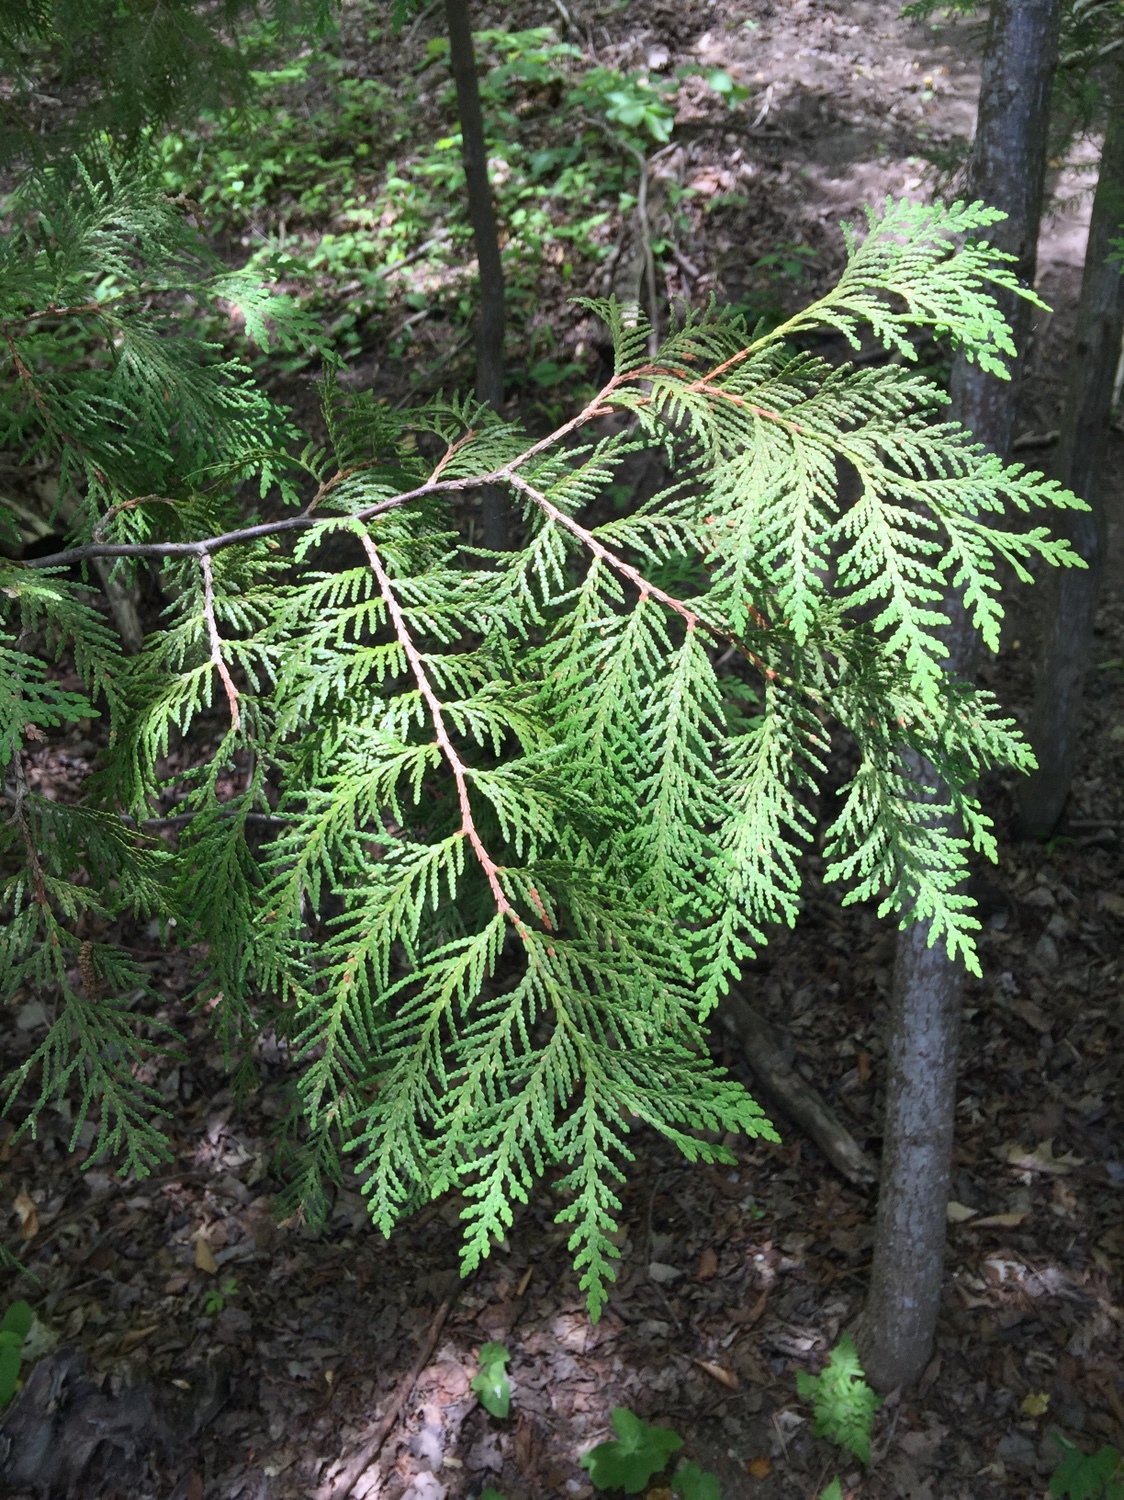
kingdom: Plantae
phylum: Tracheophyta
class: Pinopsida
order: Pinales
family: Cupressaceae
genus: Thuja
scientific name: Thuja occidentalis
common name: Northern white-cedar
